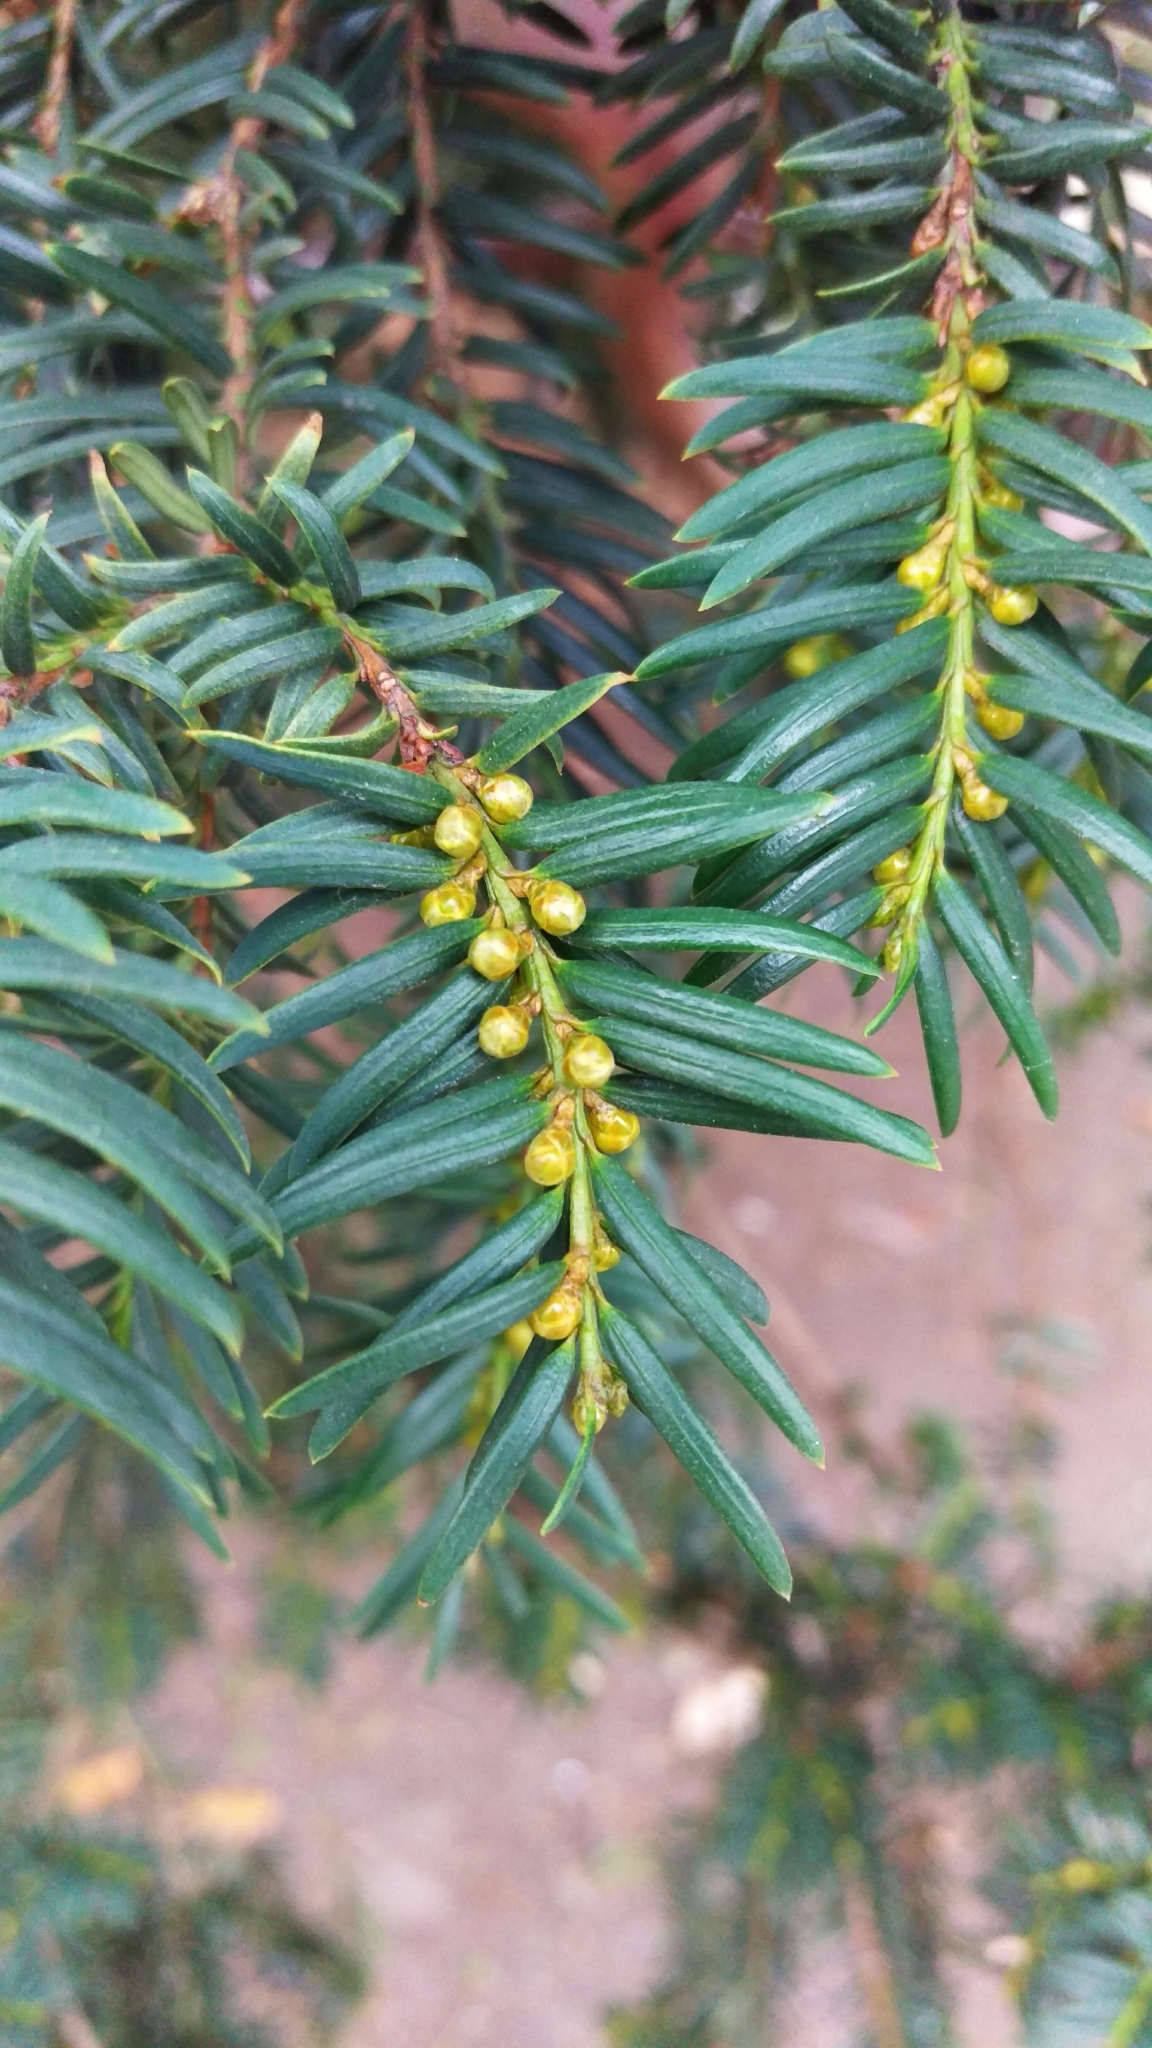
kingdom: Plantae
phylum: Tracheophyta
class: Pinopsida
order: Pinales
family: Taxaceae
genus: Taxus
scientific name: Taxus baccata
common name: Yew
